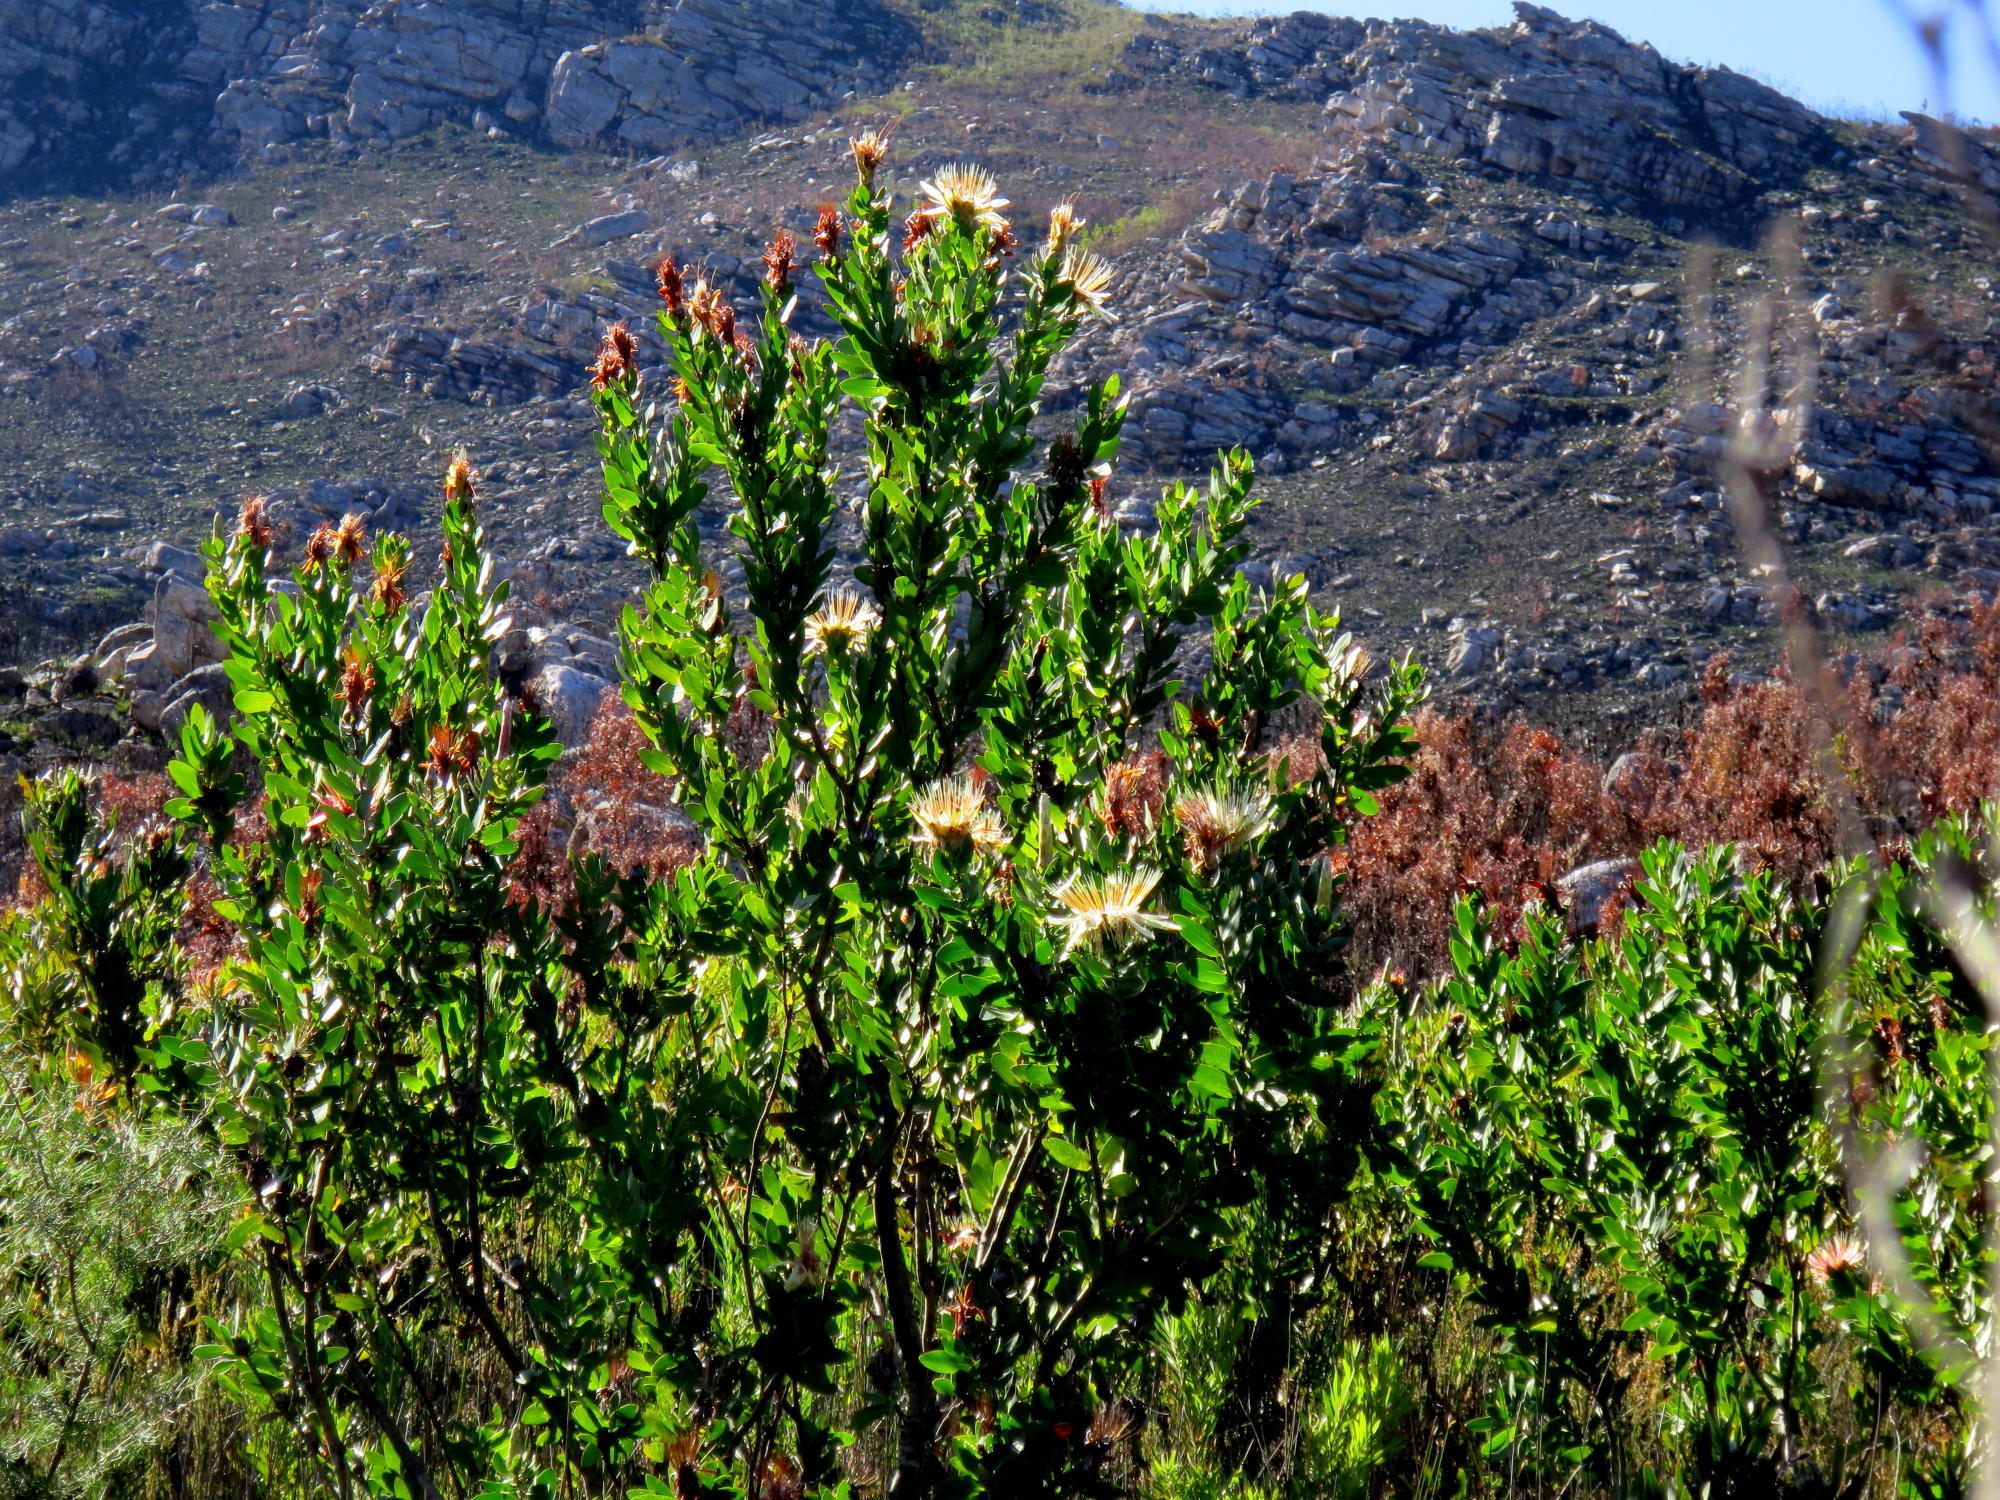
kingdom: Plantae
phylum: Tracheophyta
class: Magnoliopsida
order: Proteales
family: Proteaceae
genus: Protea
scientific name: Protea aurea
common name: Shuttlecock sugarbush
